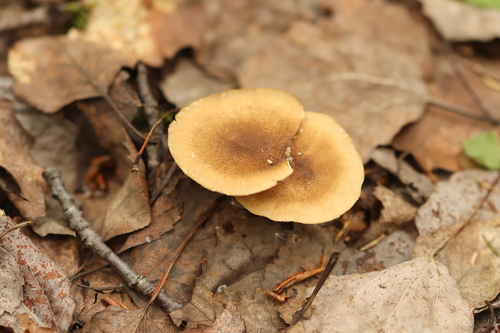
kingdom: Fungi
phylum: Basidiomycota
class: Agaricomycetes
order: Polyporales
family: Polyporaceae
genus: Lentinus
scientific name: Lentinus substrictus
